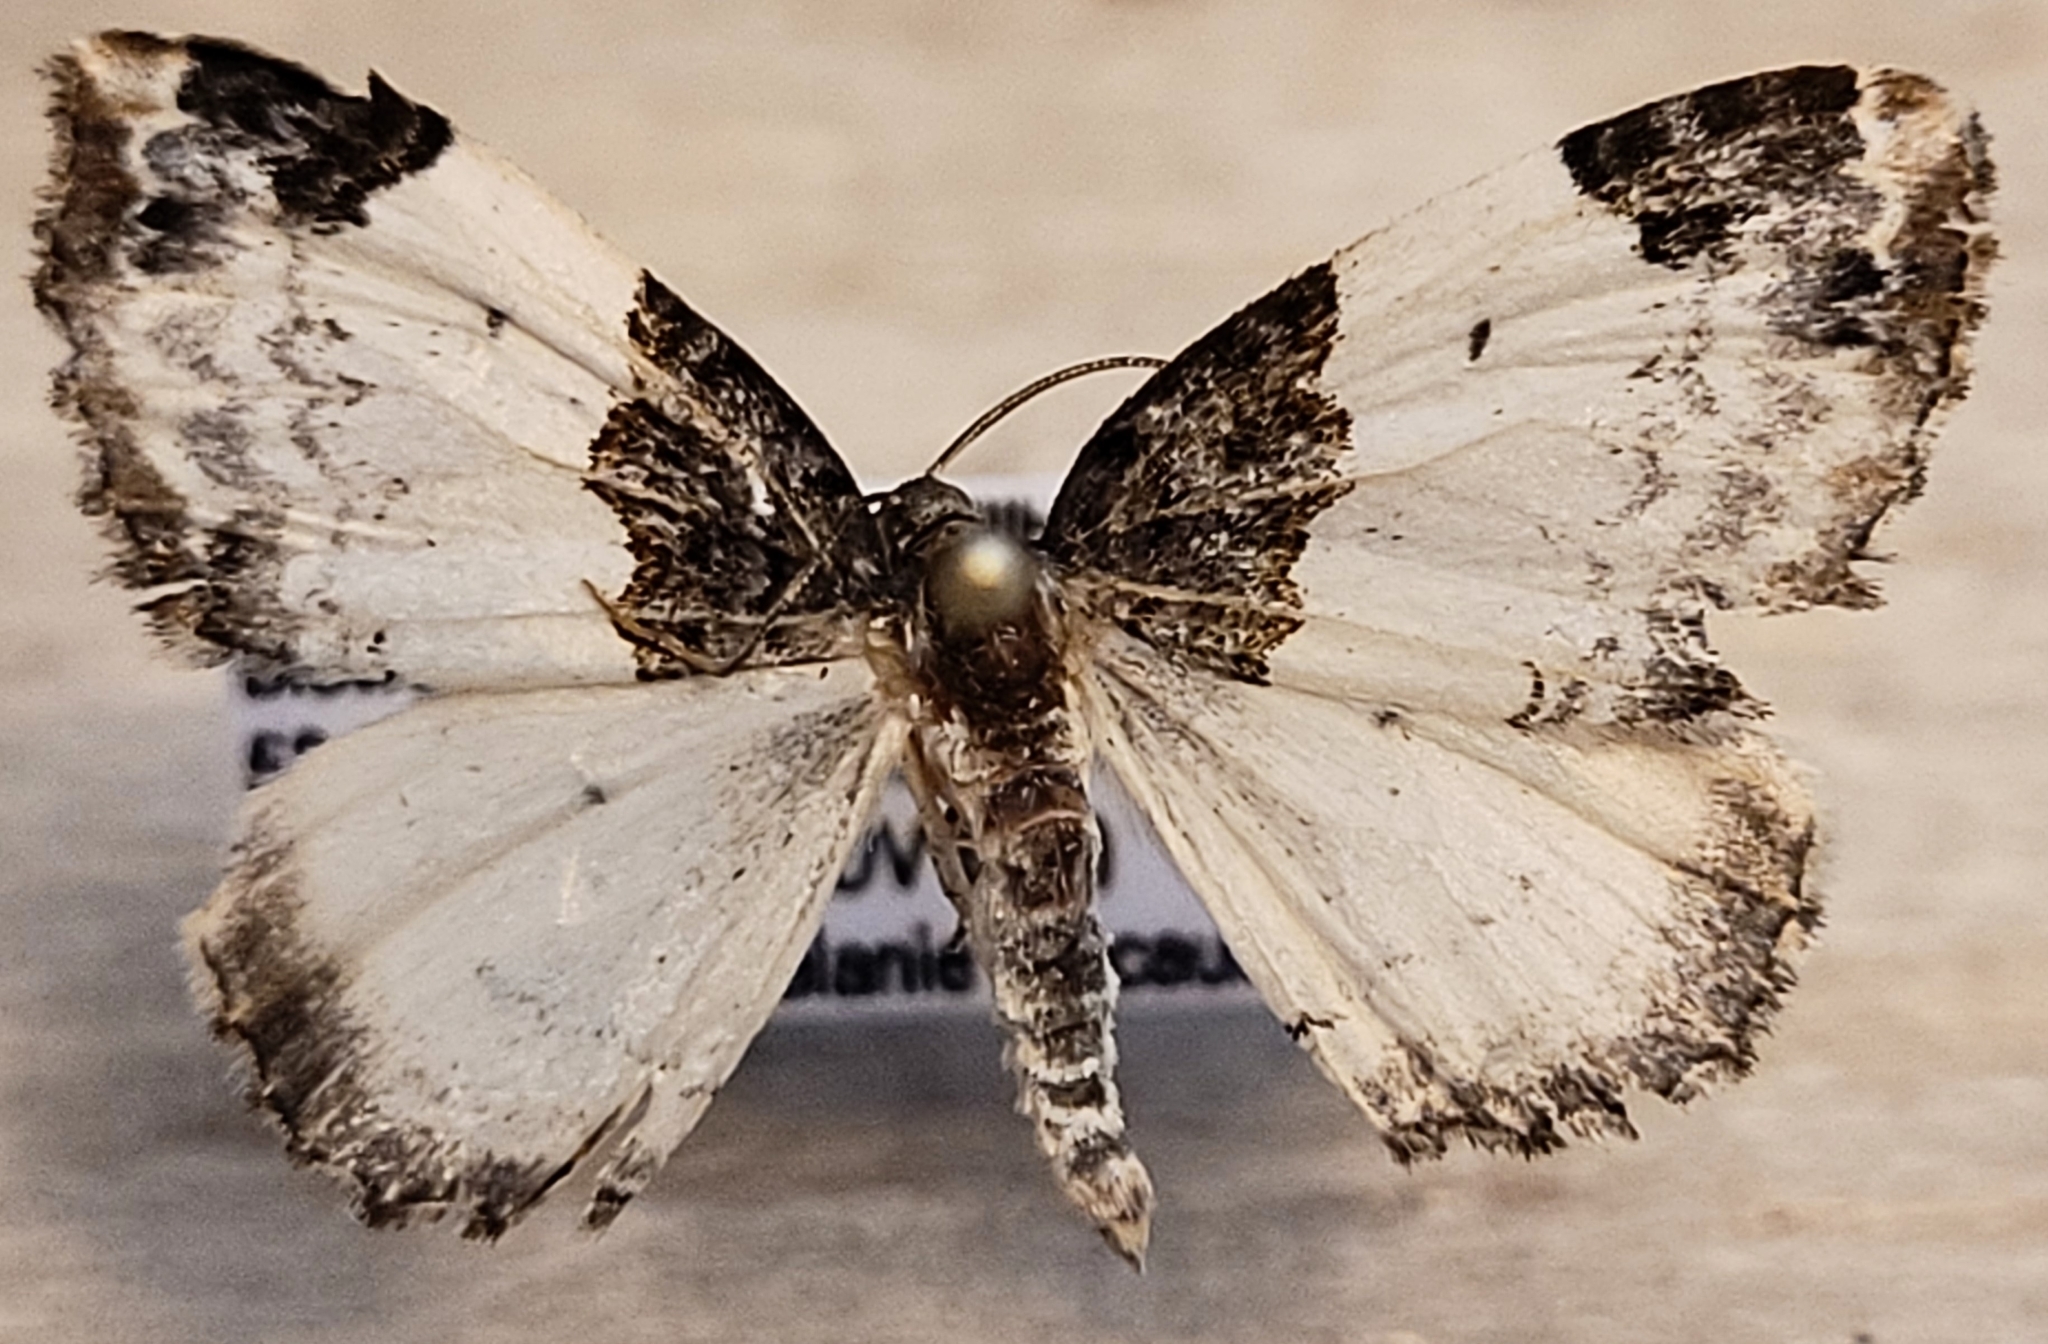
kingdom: Animalia
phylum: Arthropoda
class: Insecta
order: Lepidoptera
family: Geometridae
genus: Mesoleuca
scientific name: Mesoleuca ruficillata
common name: White-ribboned carpet moth
